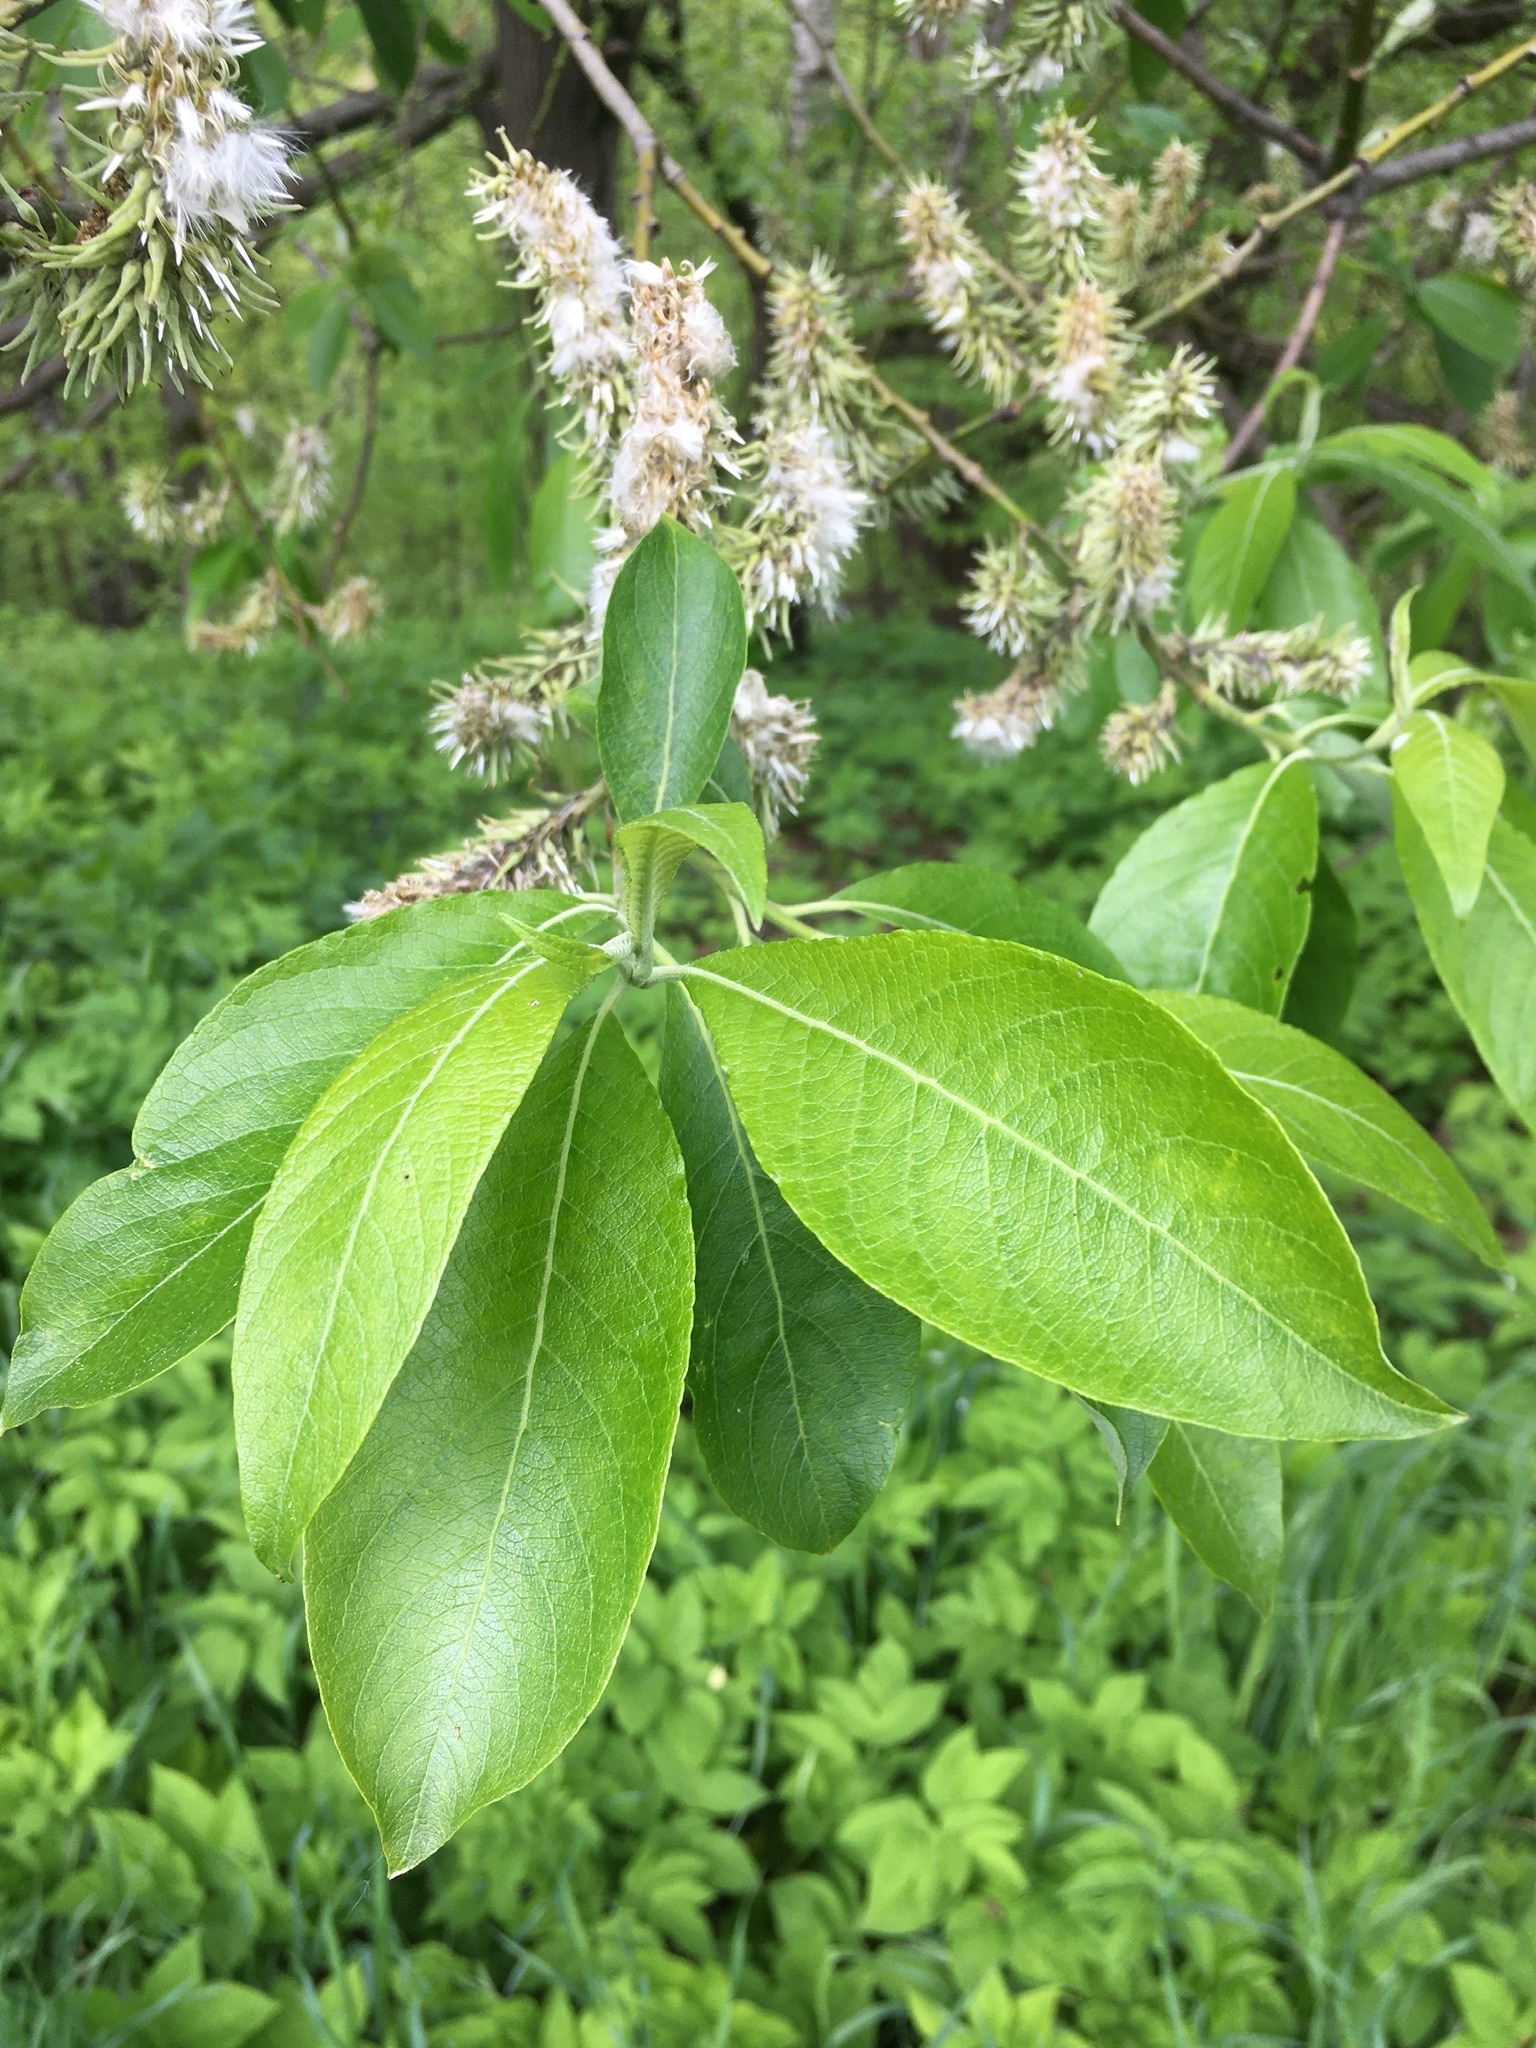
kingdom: Plantae
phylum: Tracheophyta
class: Magnoliopsida
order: Malpighiales
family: Salicaceae
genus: Salix
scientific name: Salix caprea
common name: Goat willow
